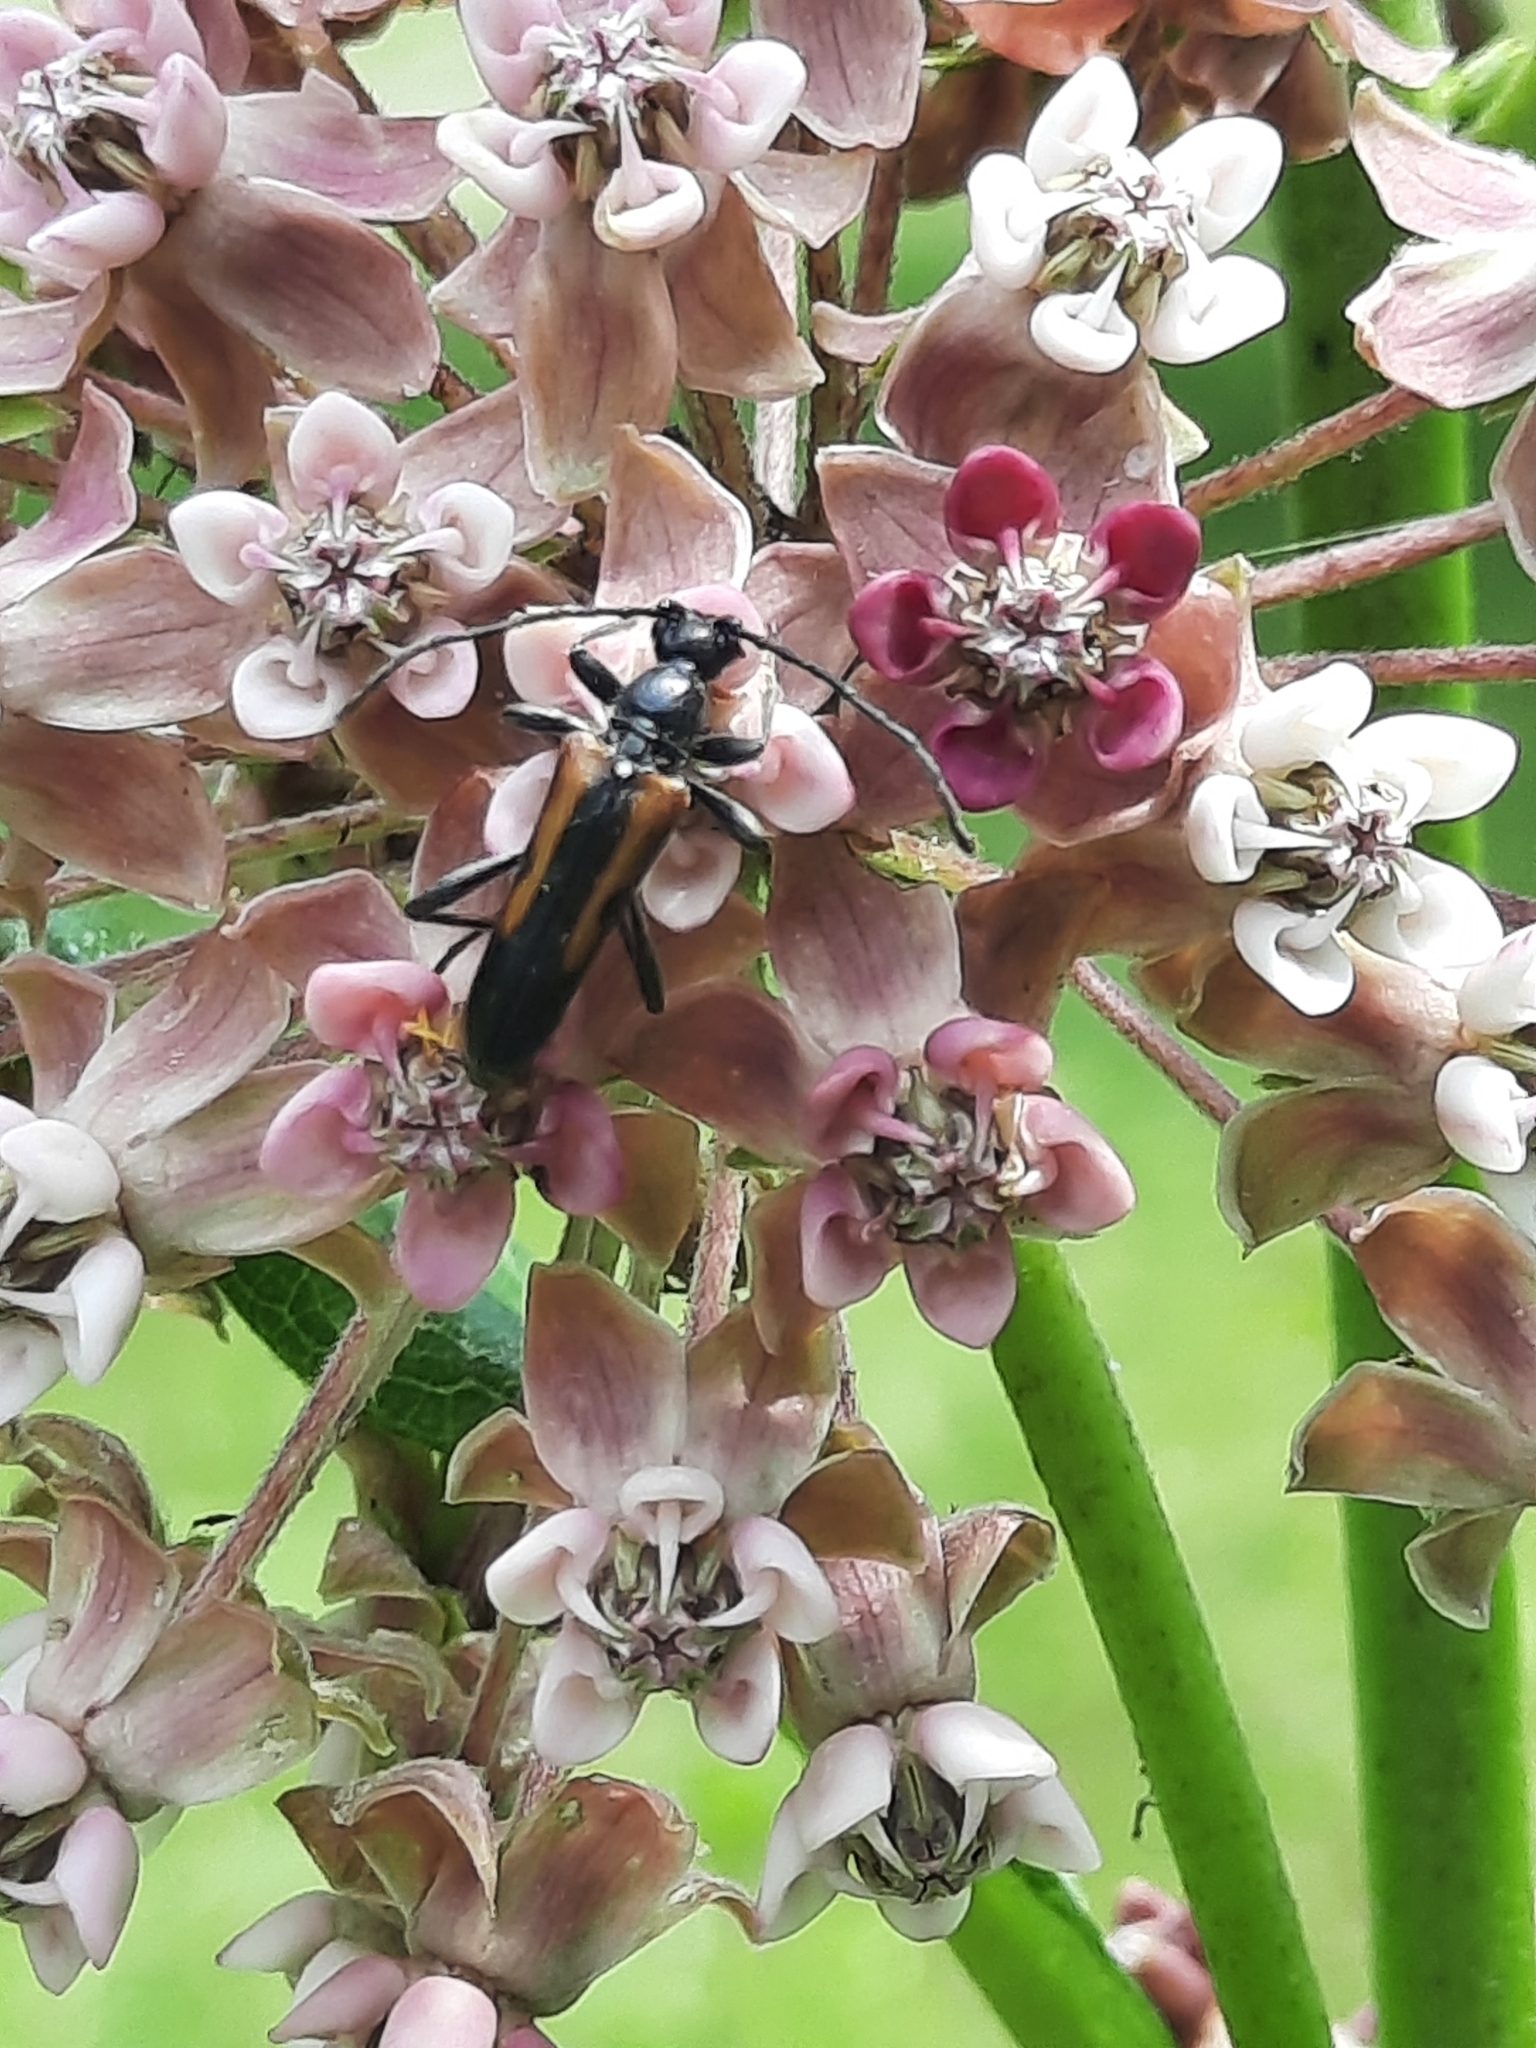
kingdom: Animalia
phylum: Arthropoda
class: Insecta
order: Coleoptera
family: Cerambycidae
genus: Strangalepta
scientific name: Strangalepta abbreviata
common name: Strangalepta flower longhorn beetle
